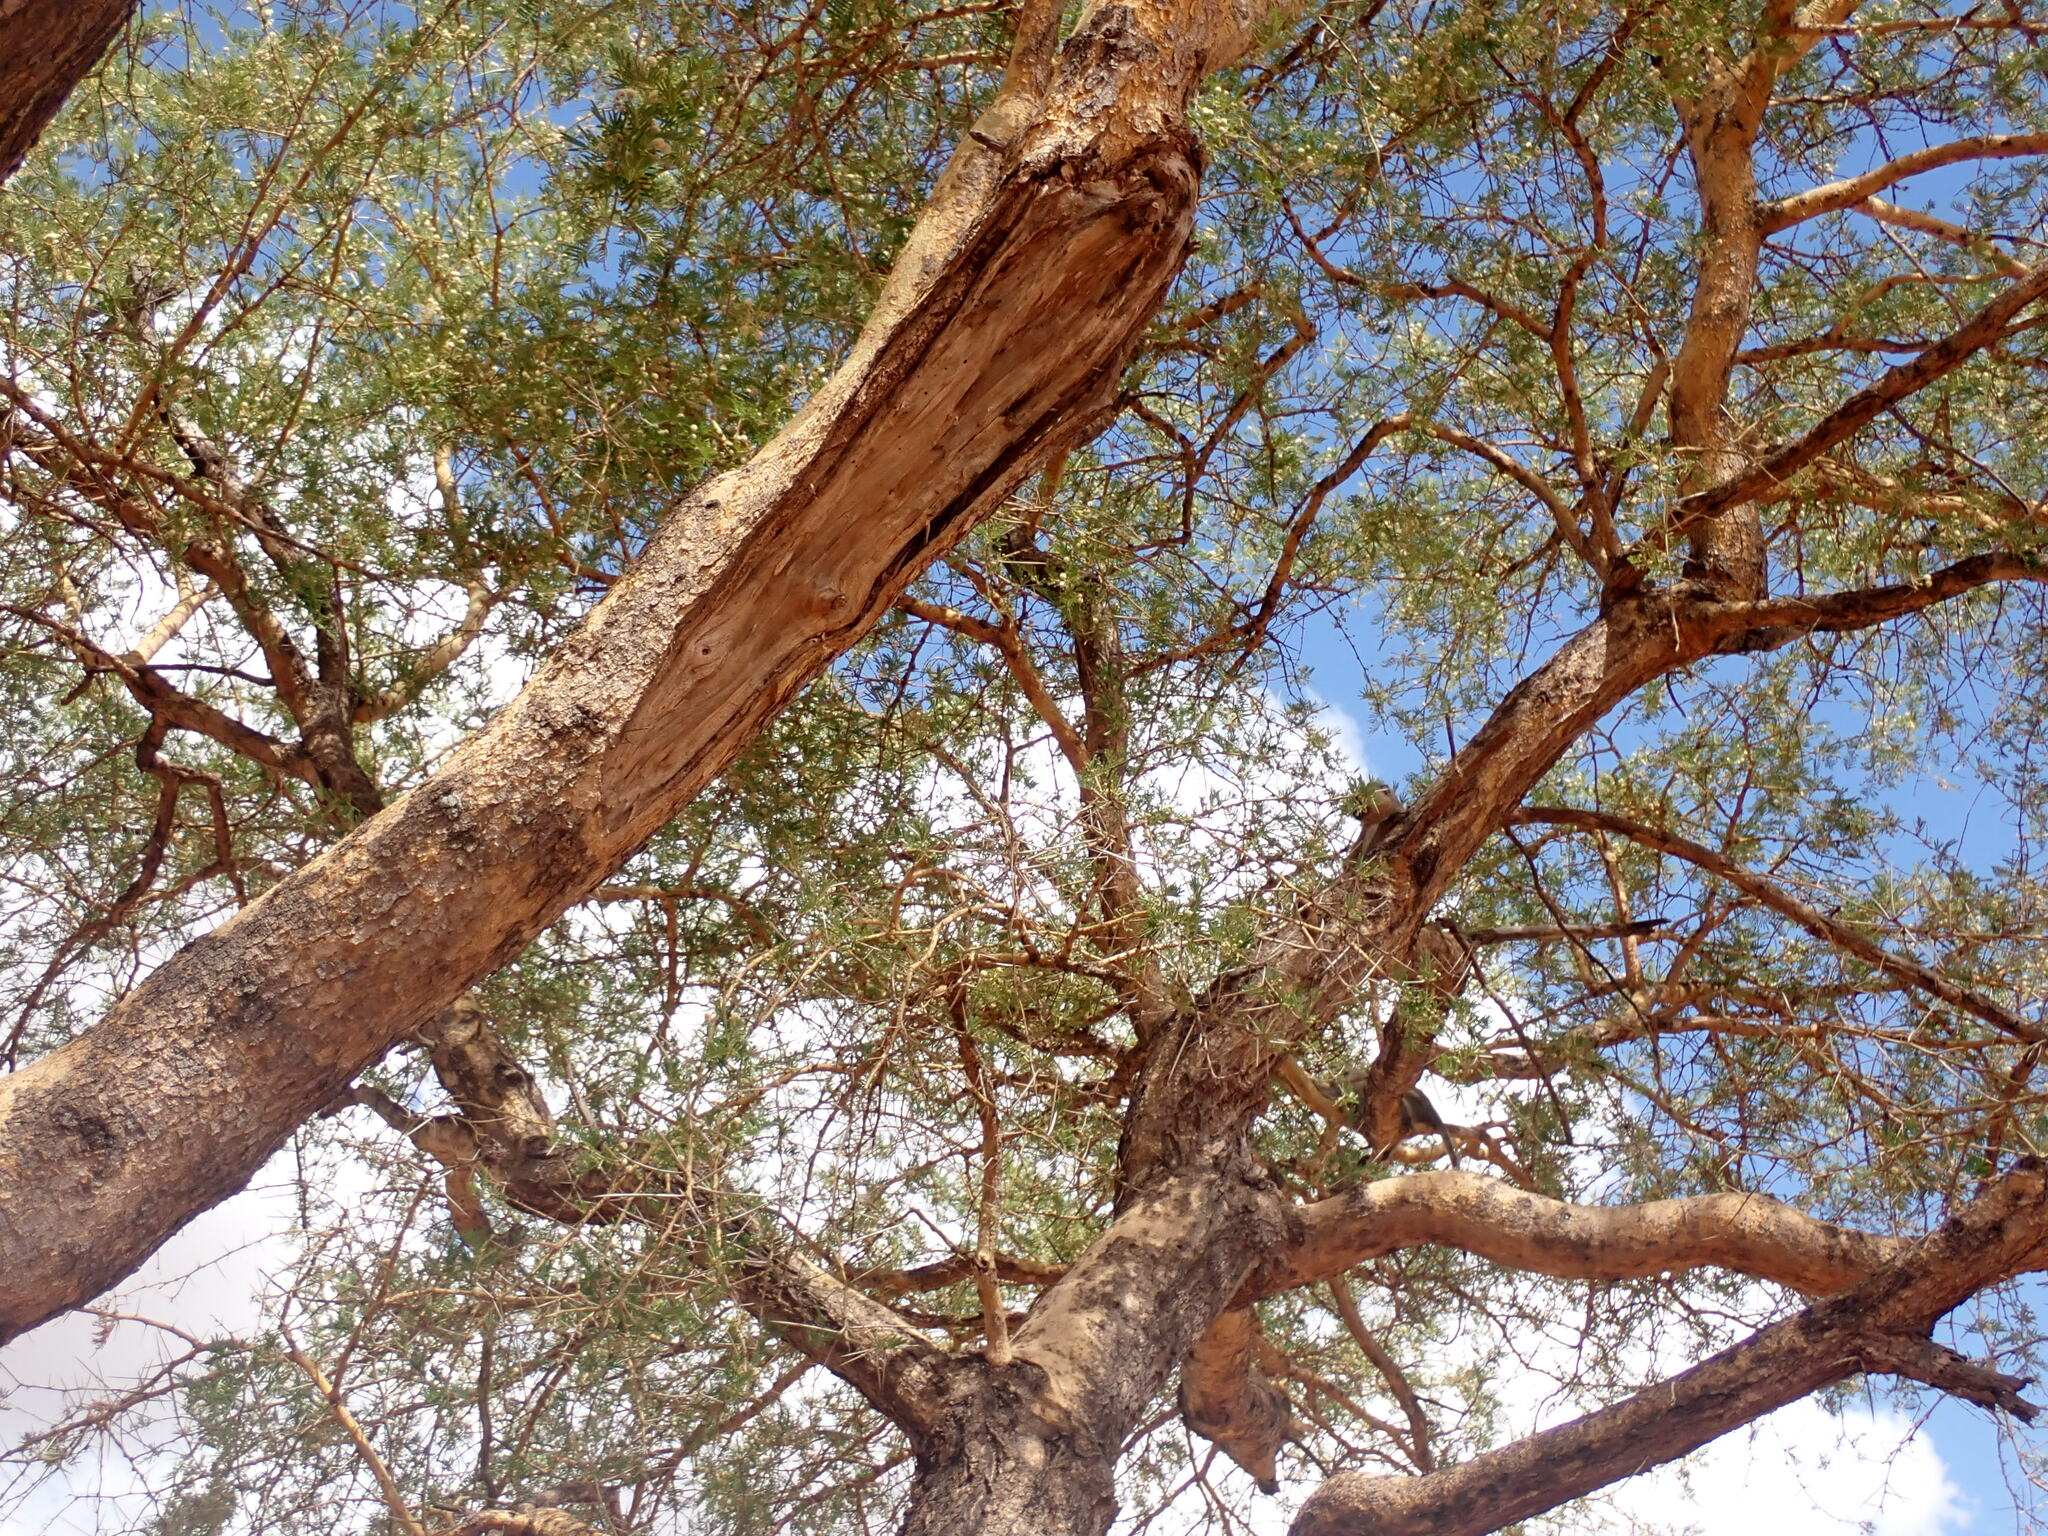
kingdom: Animalia
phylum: Chordata
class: Mammalia
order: Primates
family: Cercopithecidae
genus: Chlorocebus
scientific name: Chlorocebus pygerythrus
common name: Vervet monkey
